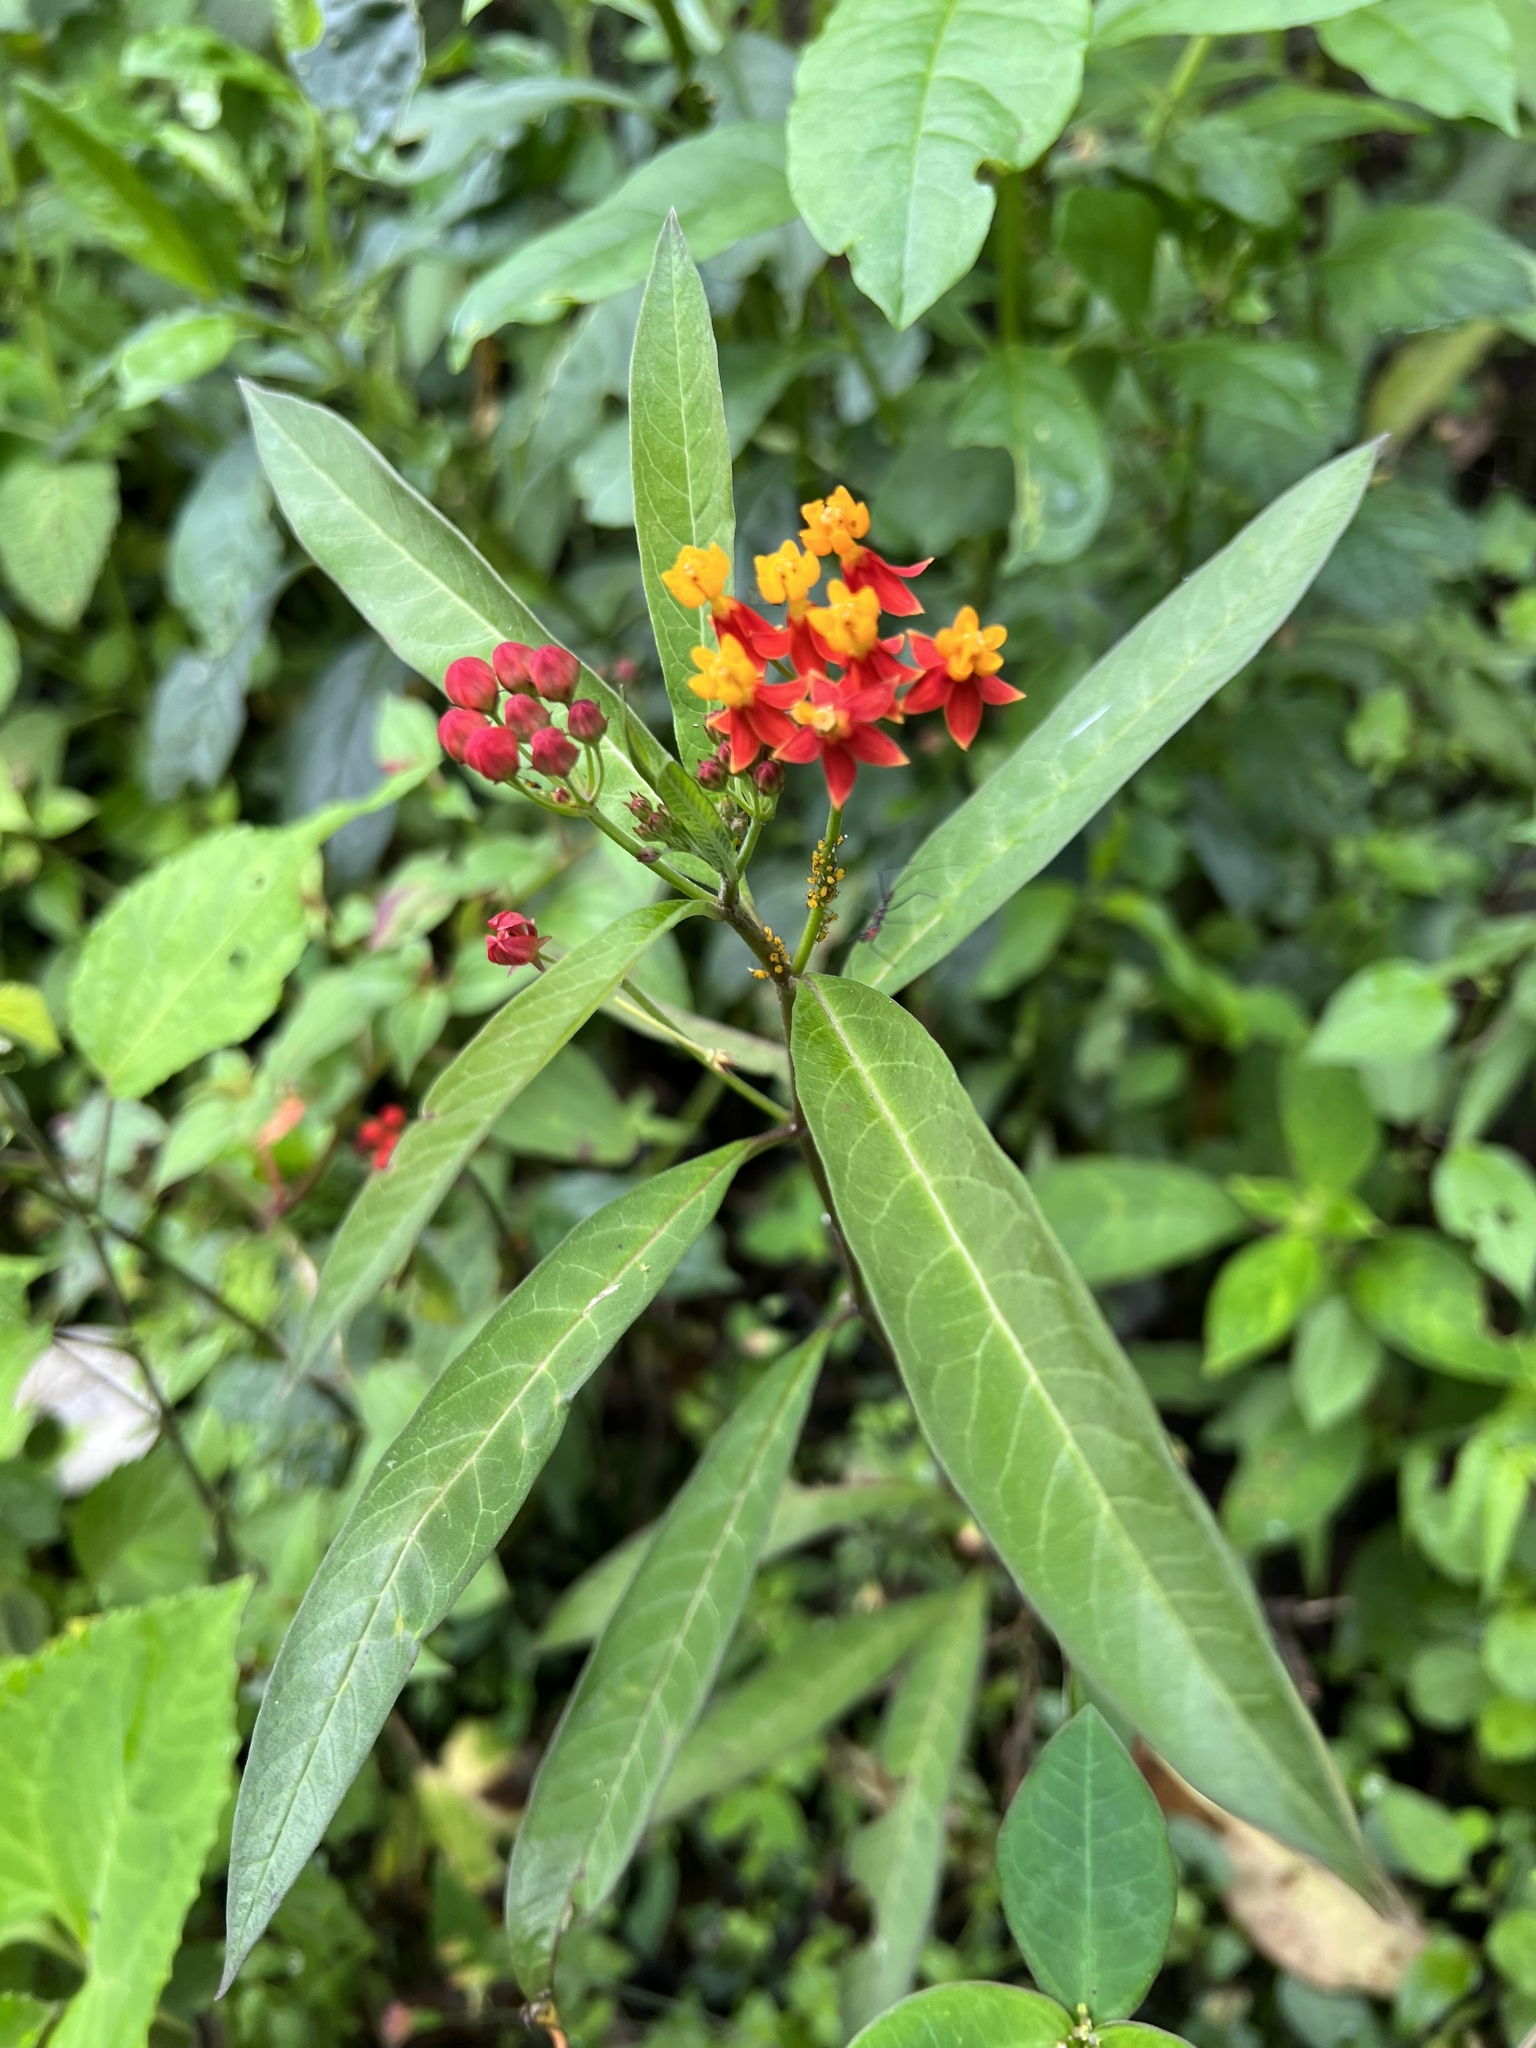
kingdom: Plantae
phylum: Tracheophyta
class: Magnoliopsida
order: Gentianales
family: Apocynaceae
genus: Asclepias
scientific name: Asclepias curassavica
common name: Bloodflower
